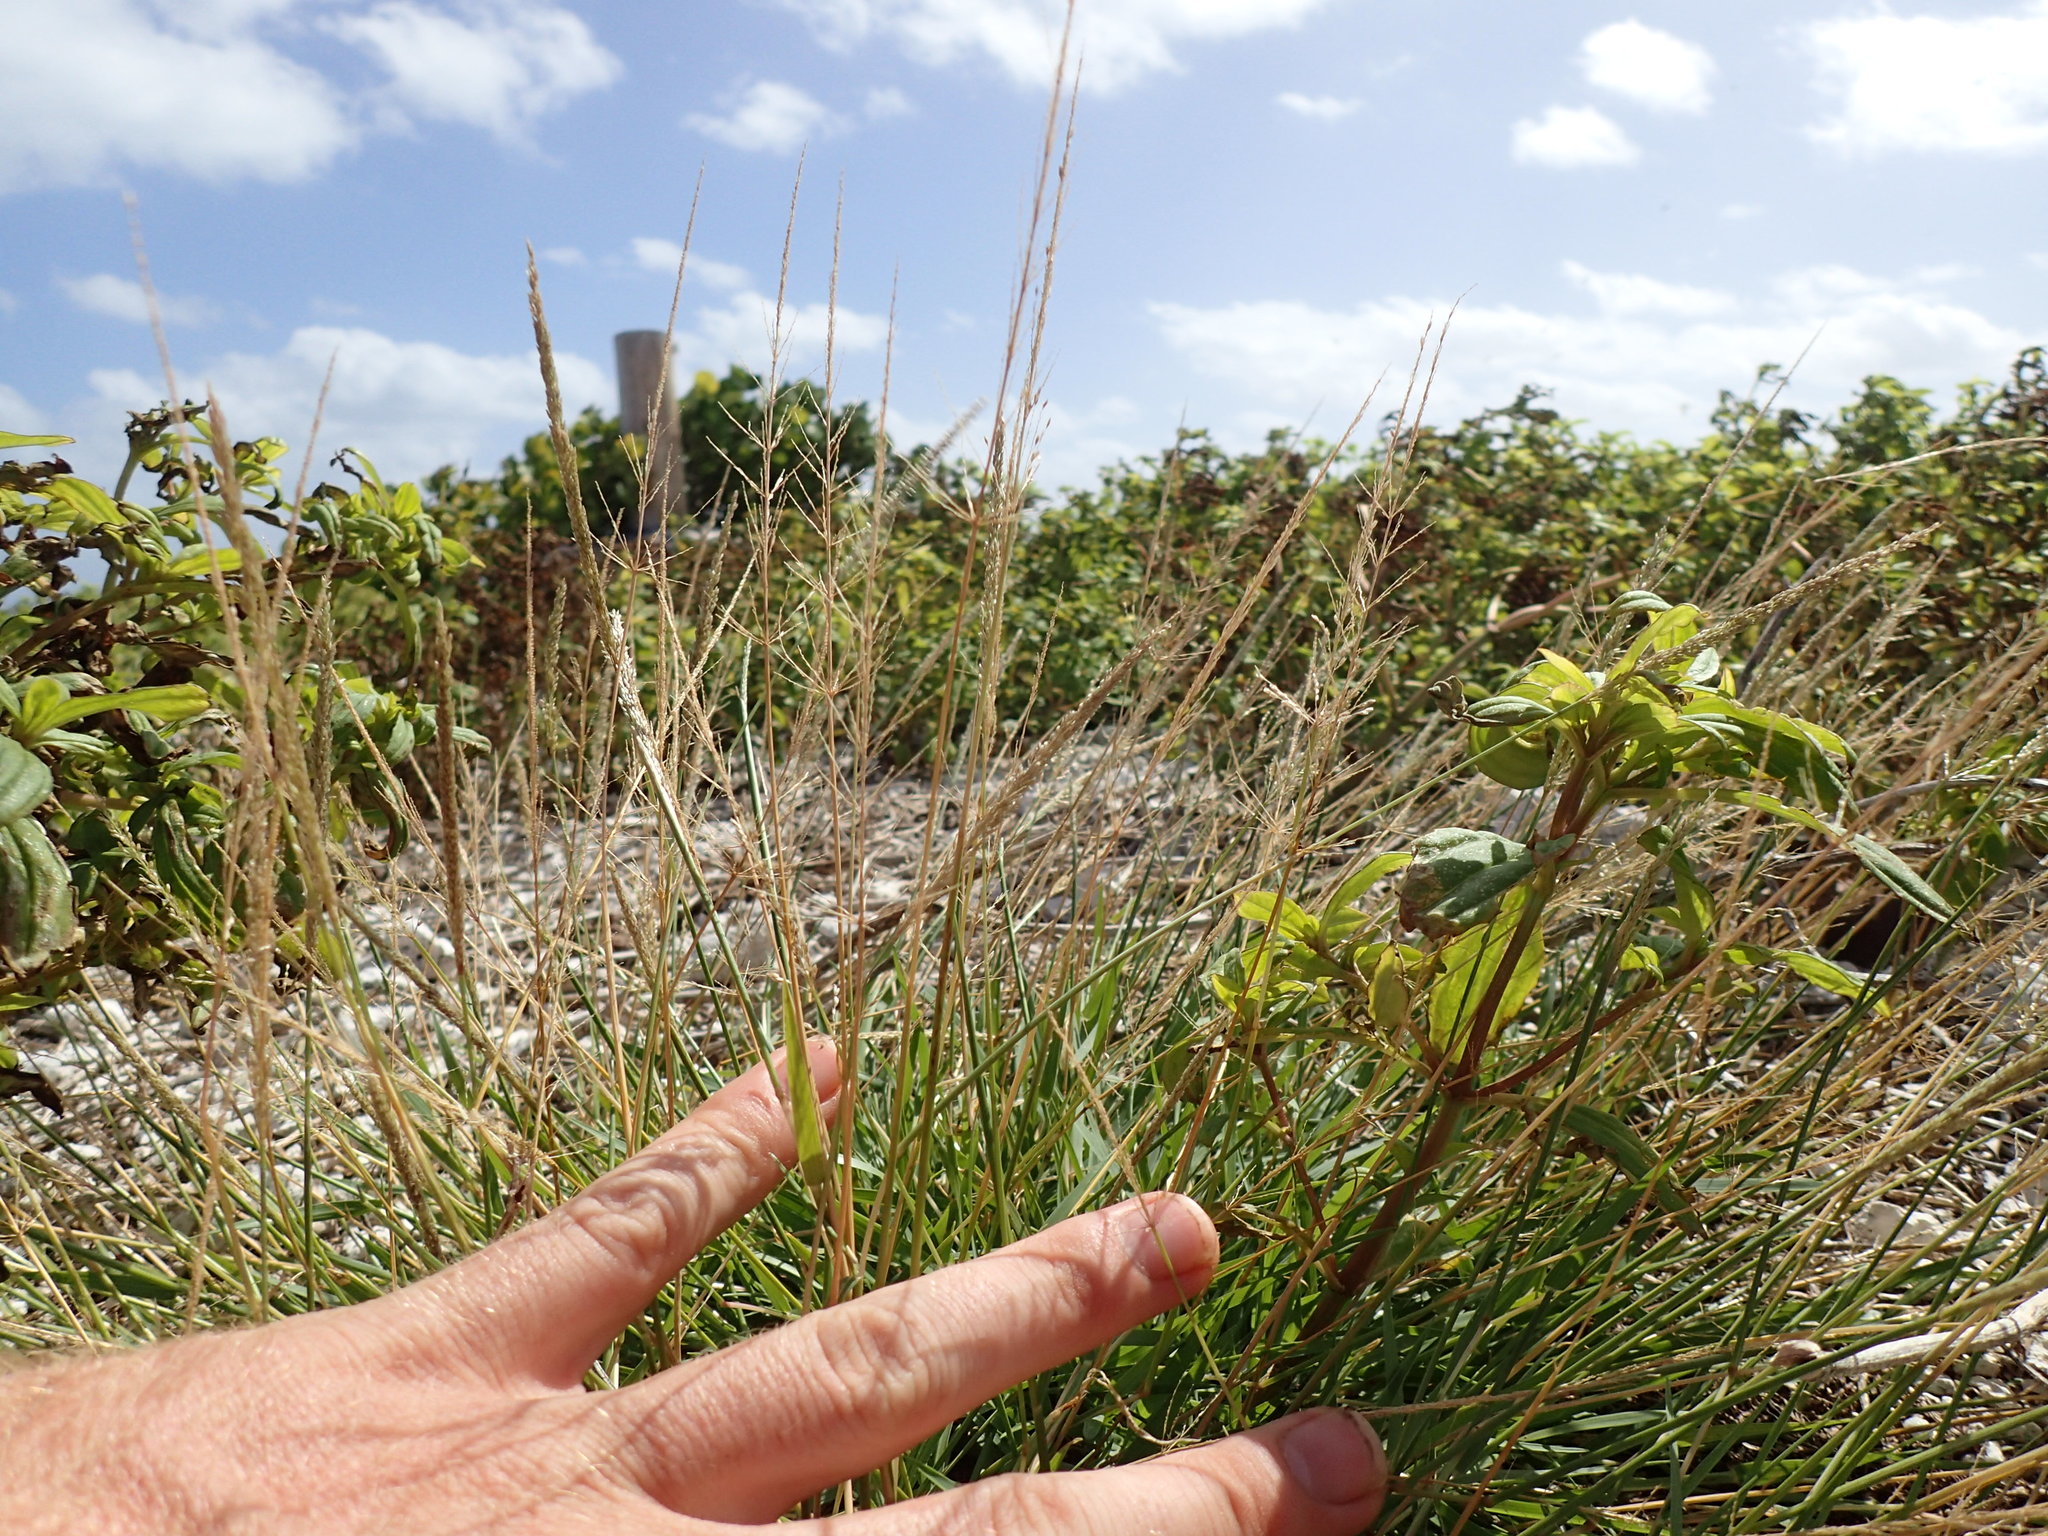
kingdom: Plantae
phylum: Tracheophyta
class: Liliopsida
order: Poales
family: Poaceae
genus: Sporobolus
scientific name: Sporobolus pyramidatus
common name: Whorled dropseed
